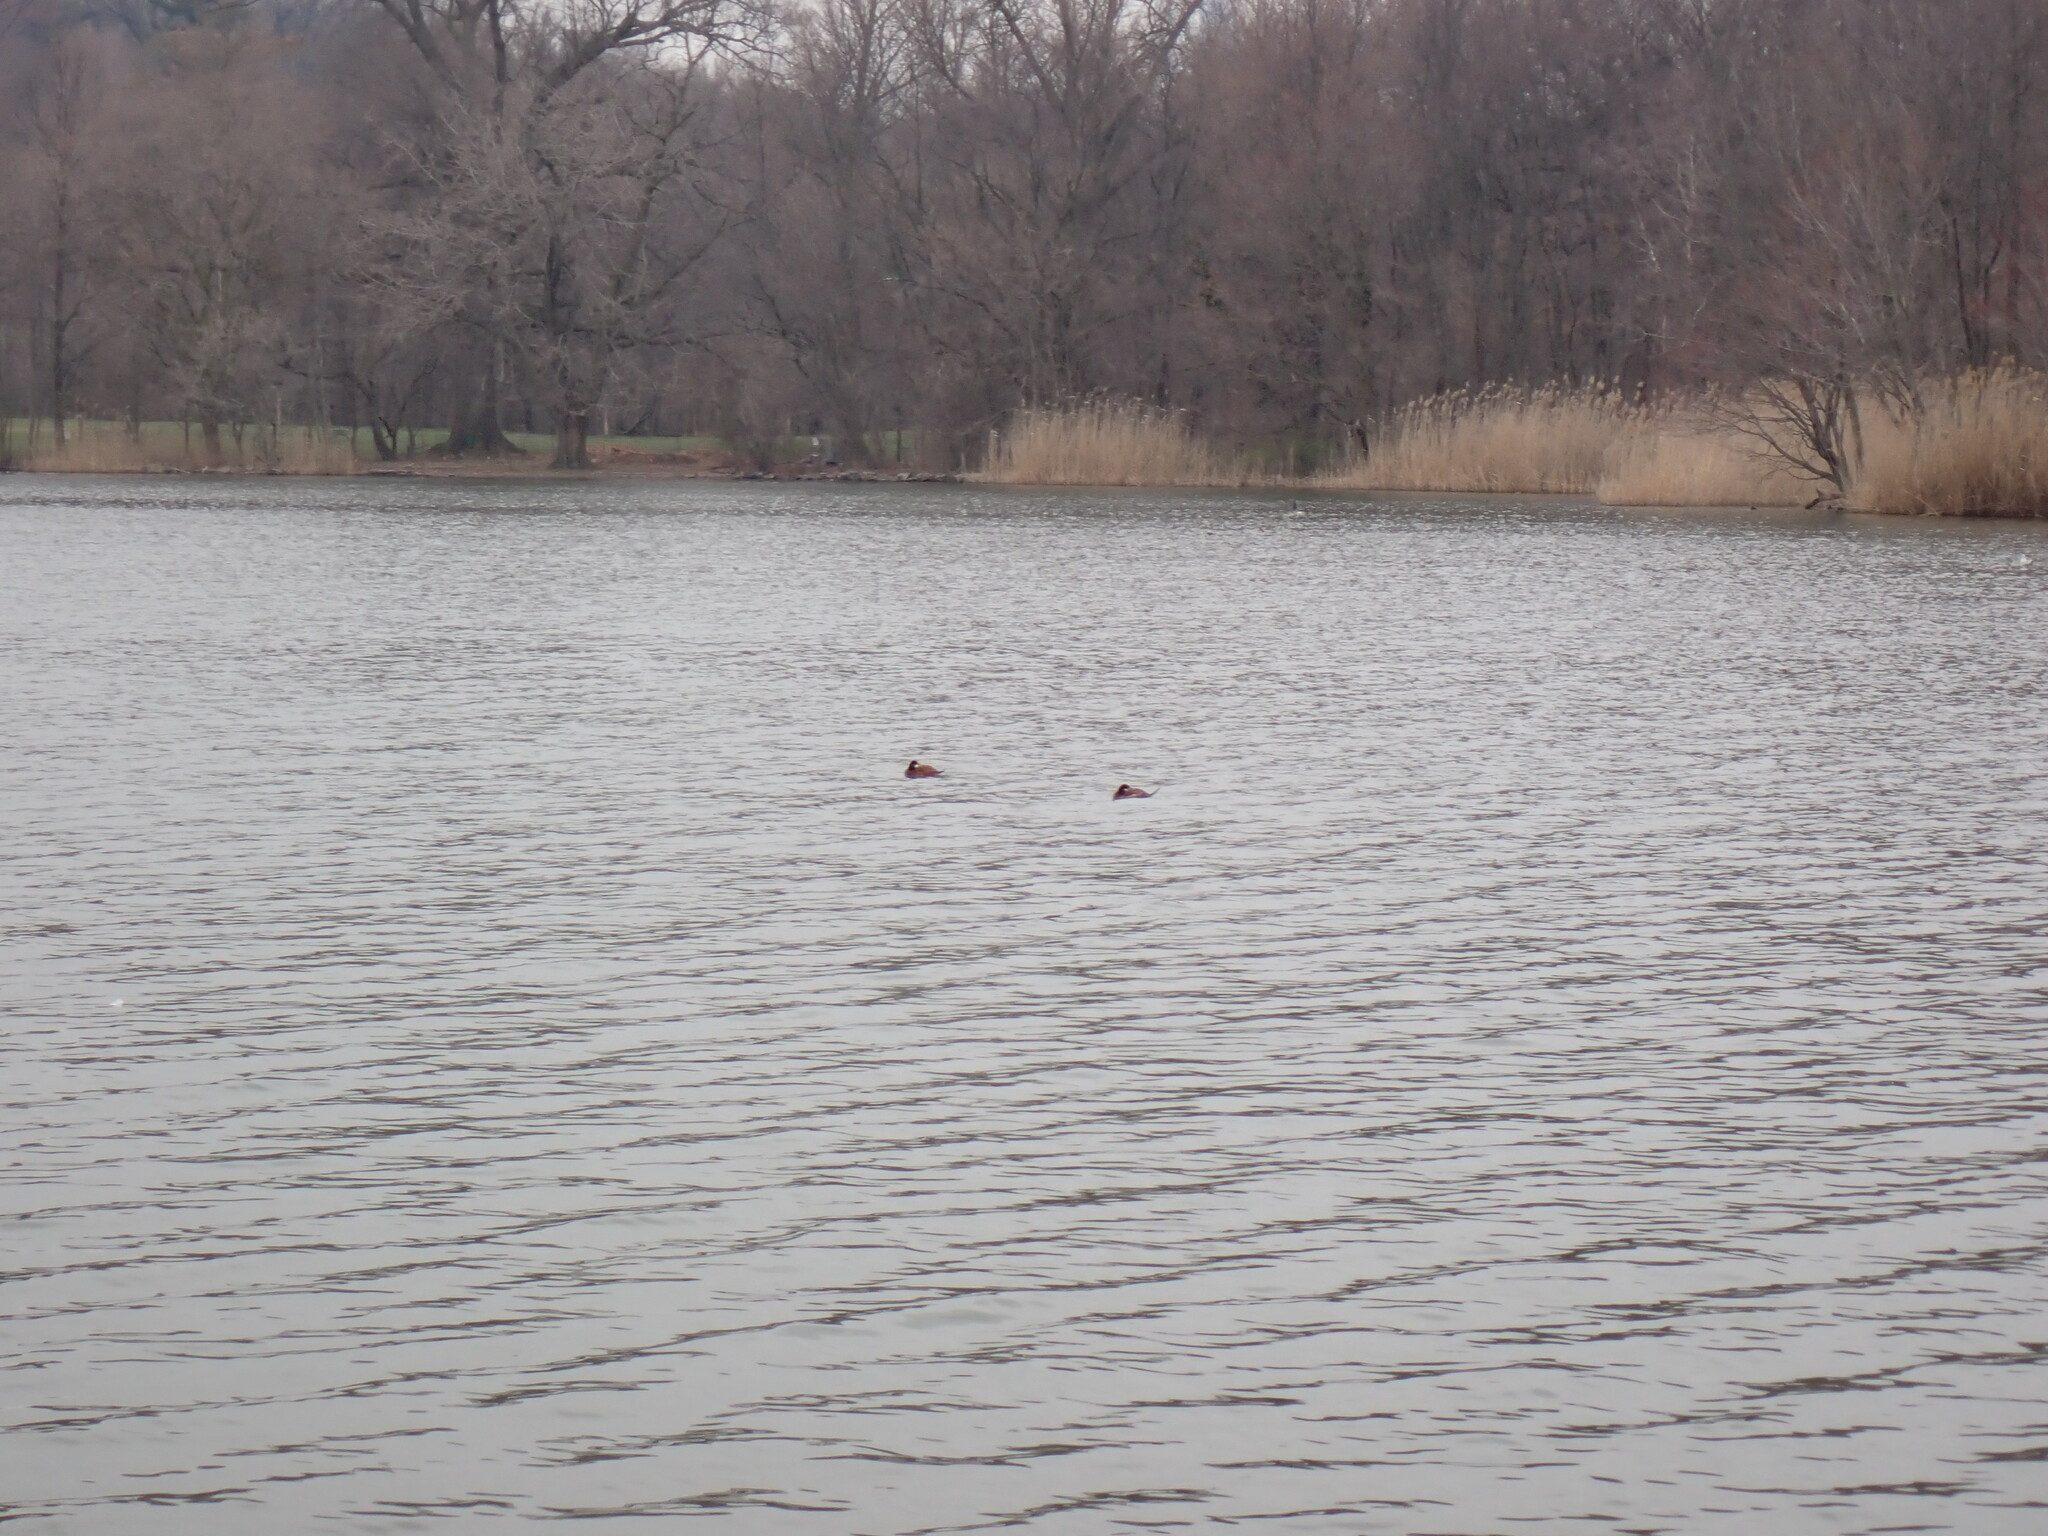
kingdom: Animalia
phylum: Chordata
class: Aves
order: Anseriformes
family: Anatidae
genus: Oxyura
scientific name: Oxyura jamaicensis
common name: Ruddy duck
